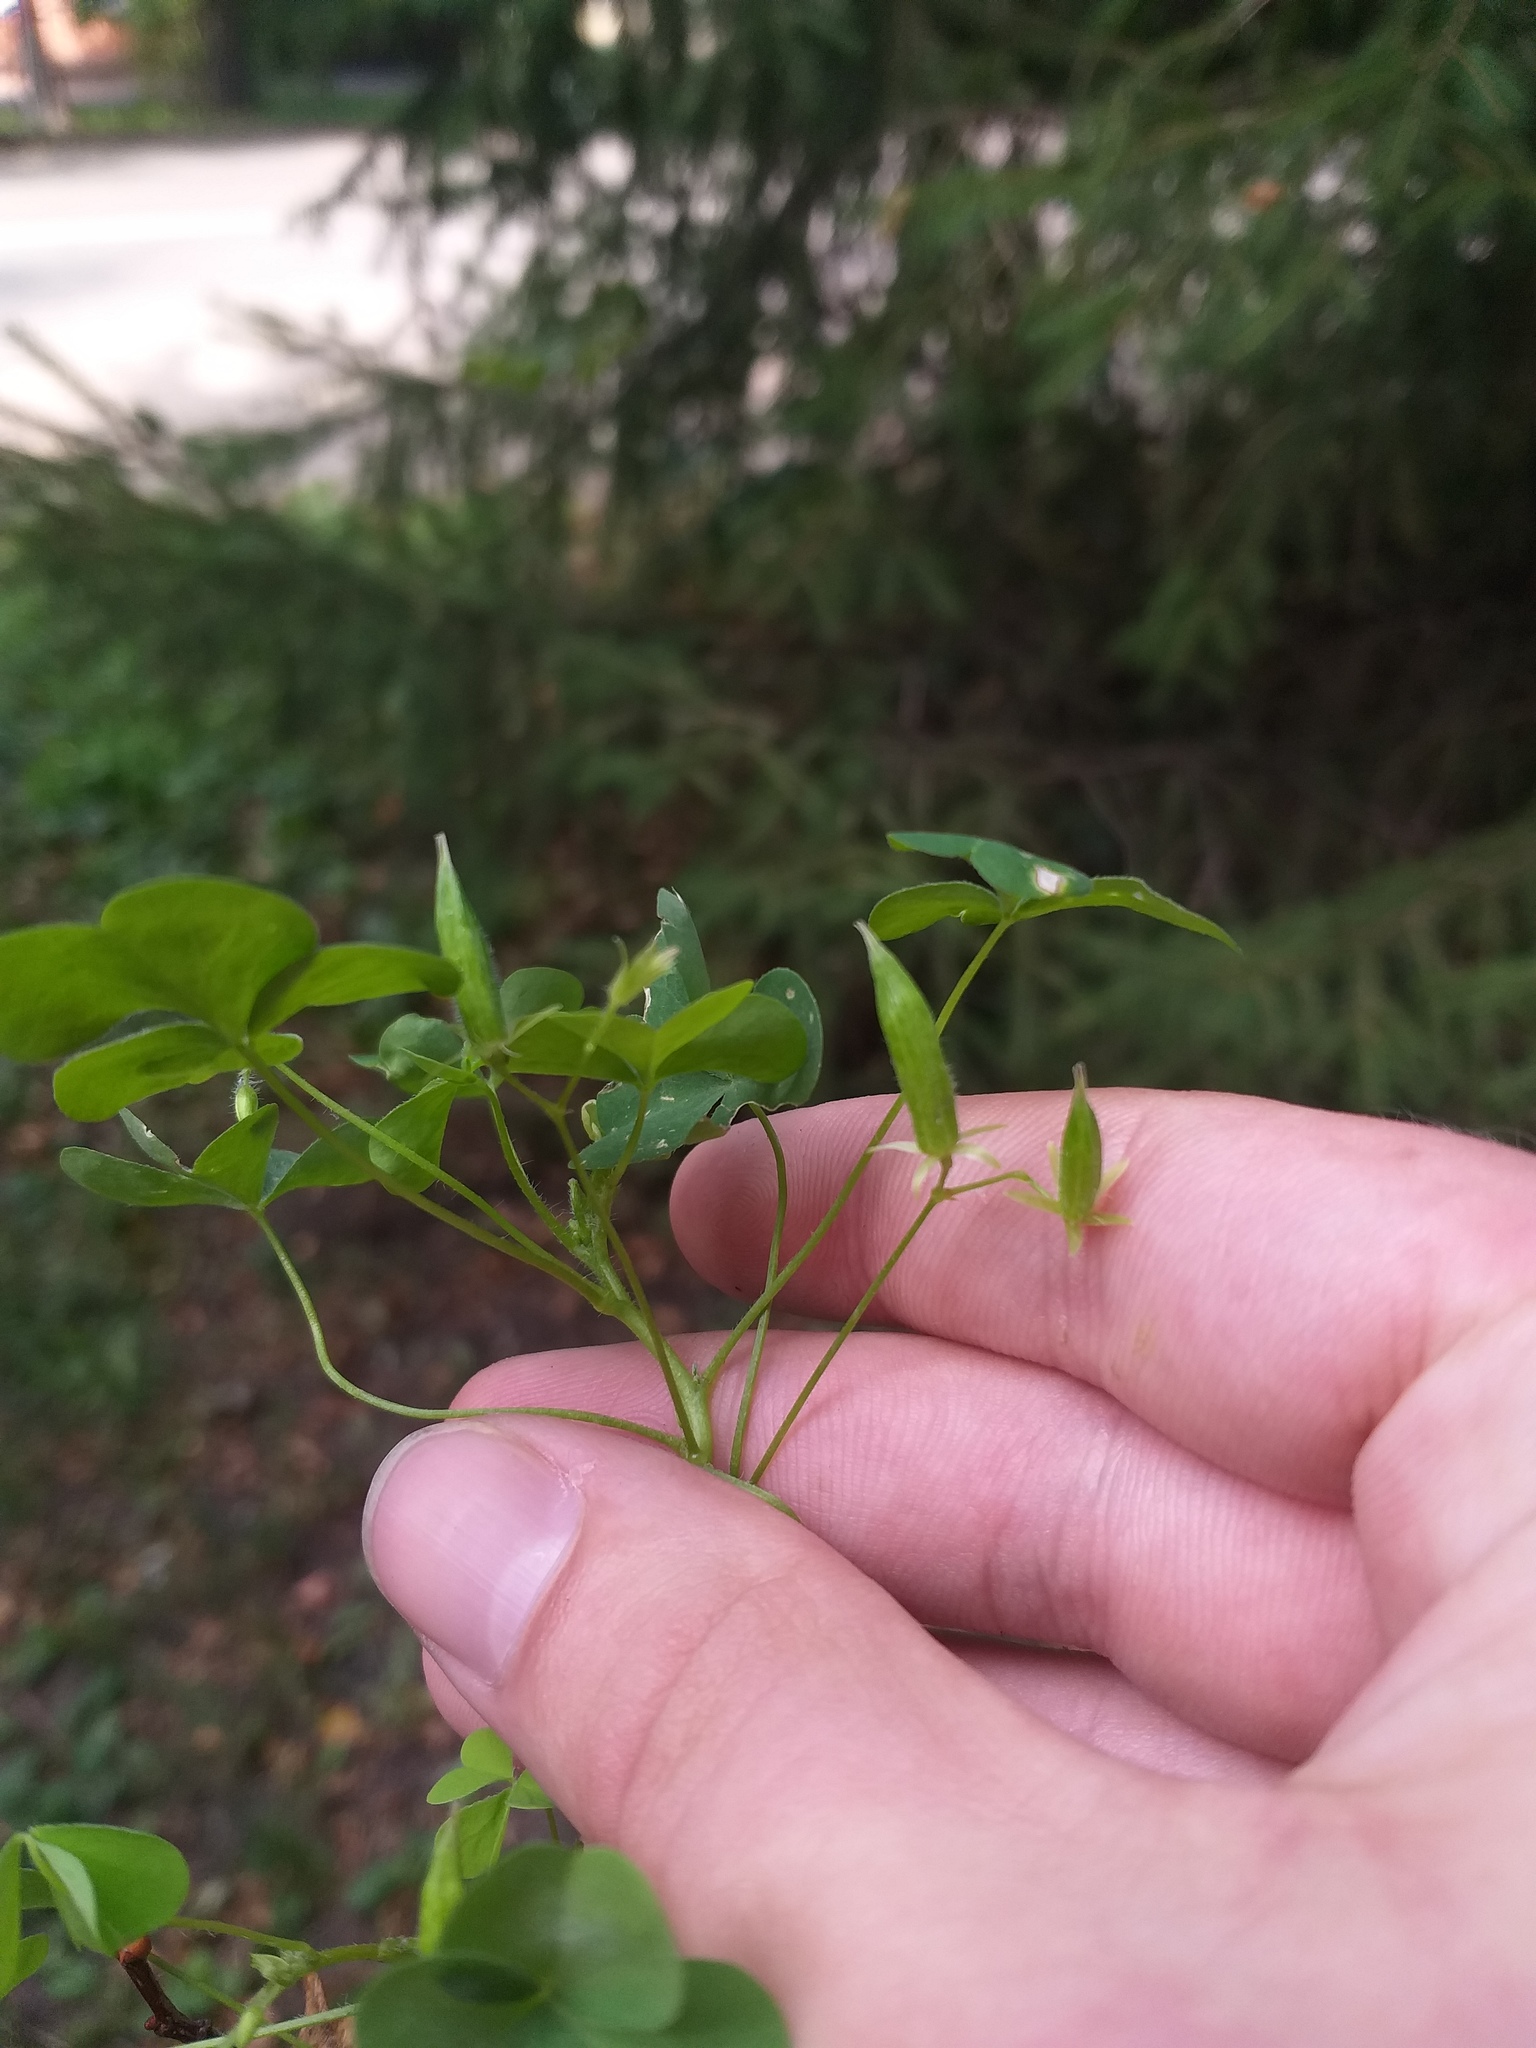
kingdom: Plantae
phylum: Tracheophyta
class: Magnoliopsida
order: Oxalidales
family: Oxalidaceae
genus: Oxalis
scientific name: Oxalis stricta
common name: Upright yellow-sorrel
